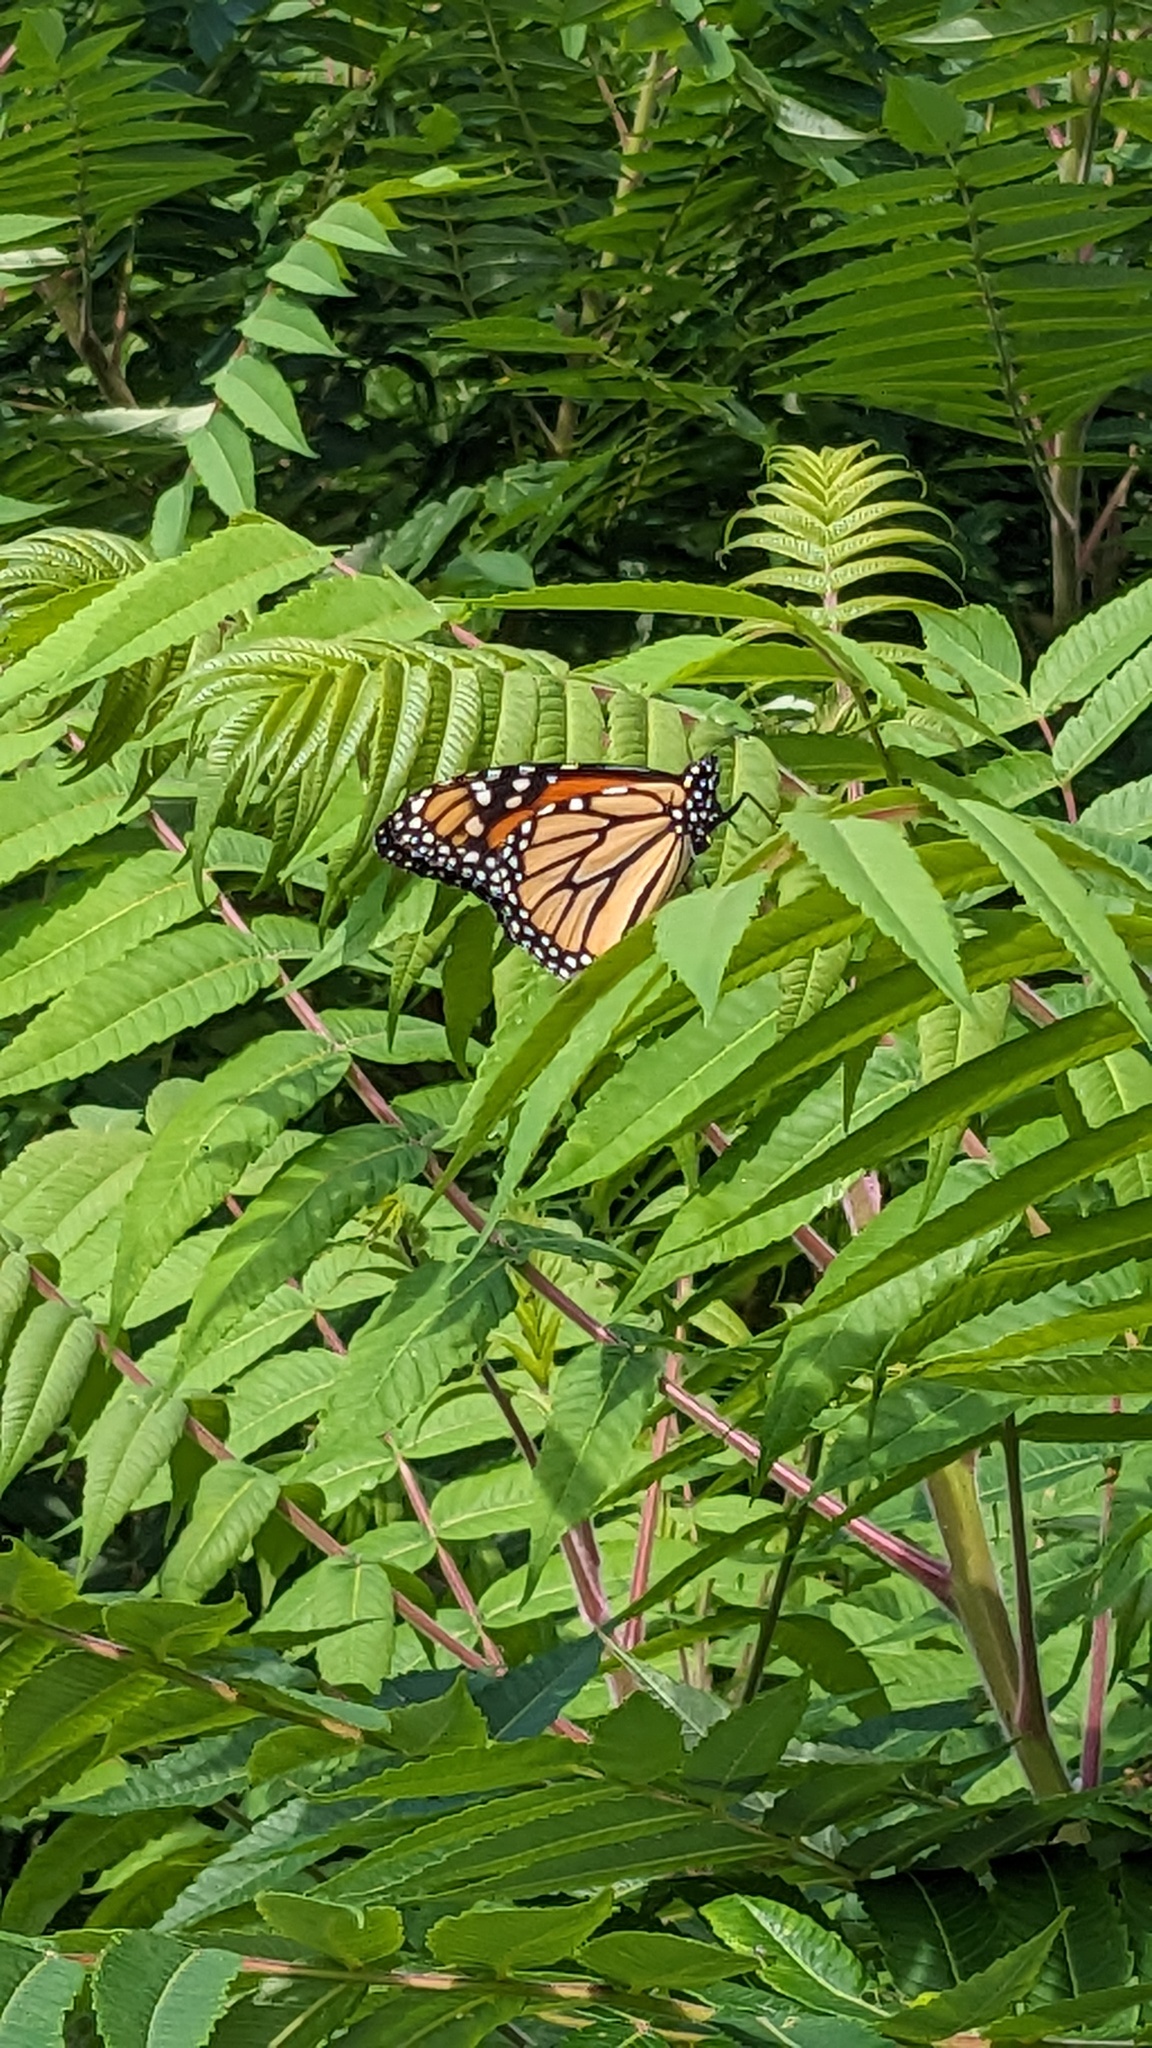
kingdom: Animalia
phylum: Arthropoda
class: Insecta
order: Lepidoptera
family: Nymphalidae
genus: Danaus
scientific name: Danaus plexippus
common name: Monarch
